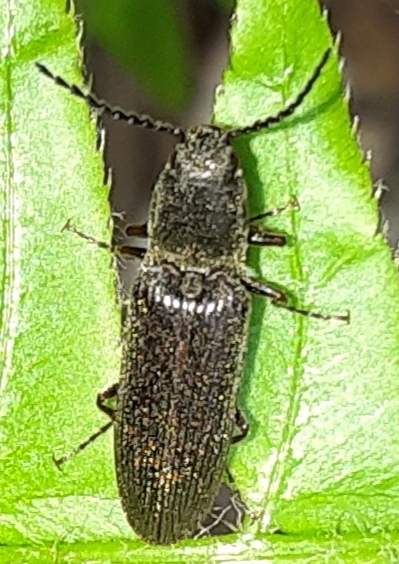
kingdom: Animalia
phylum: Arthropoda
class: Insecta
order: Coleoptera
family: Elateridae
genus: Sylvanelater
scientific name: Sylvanelater cylindriformis
